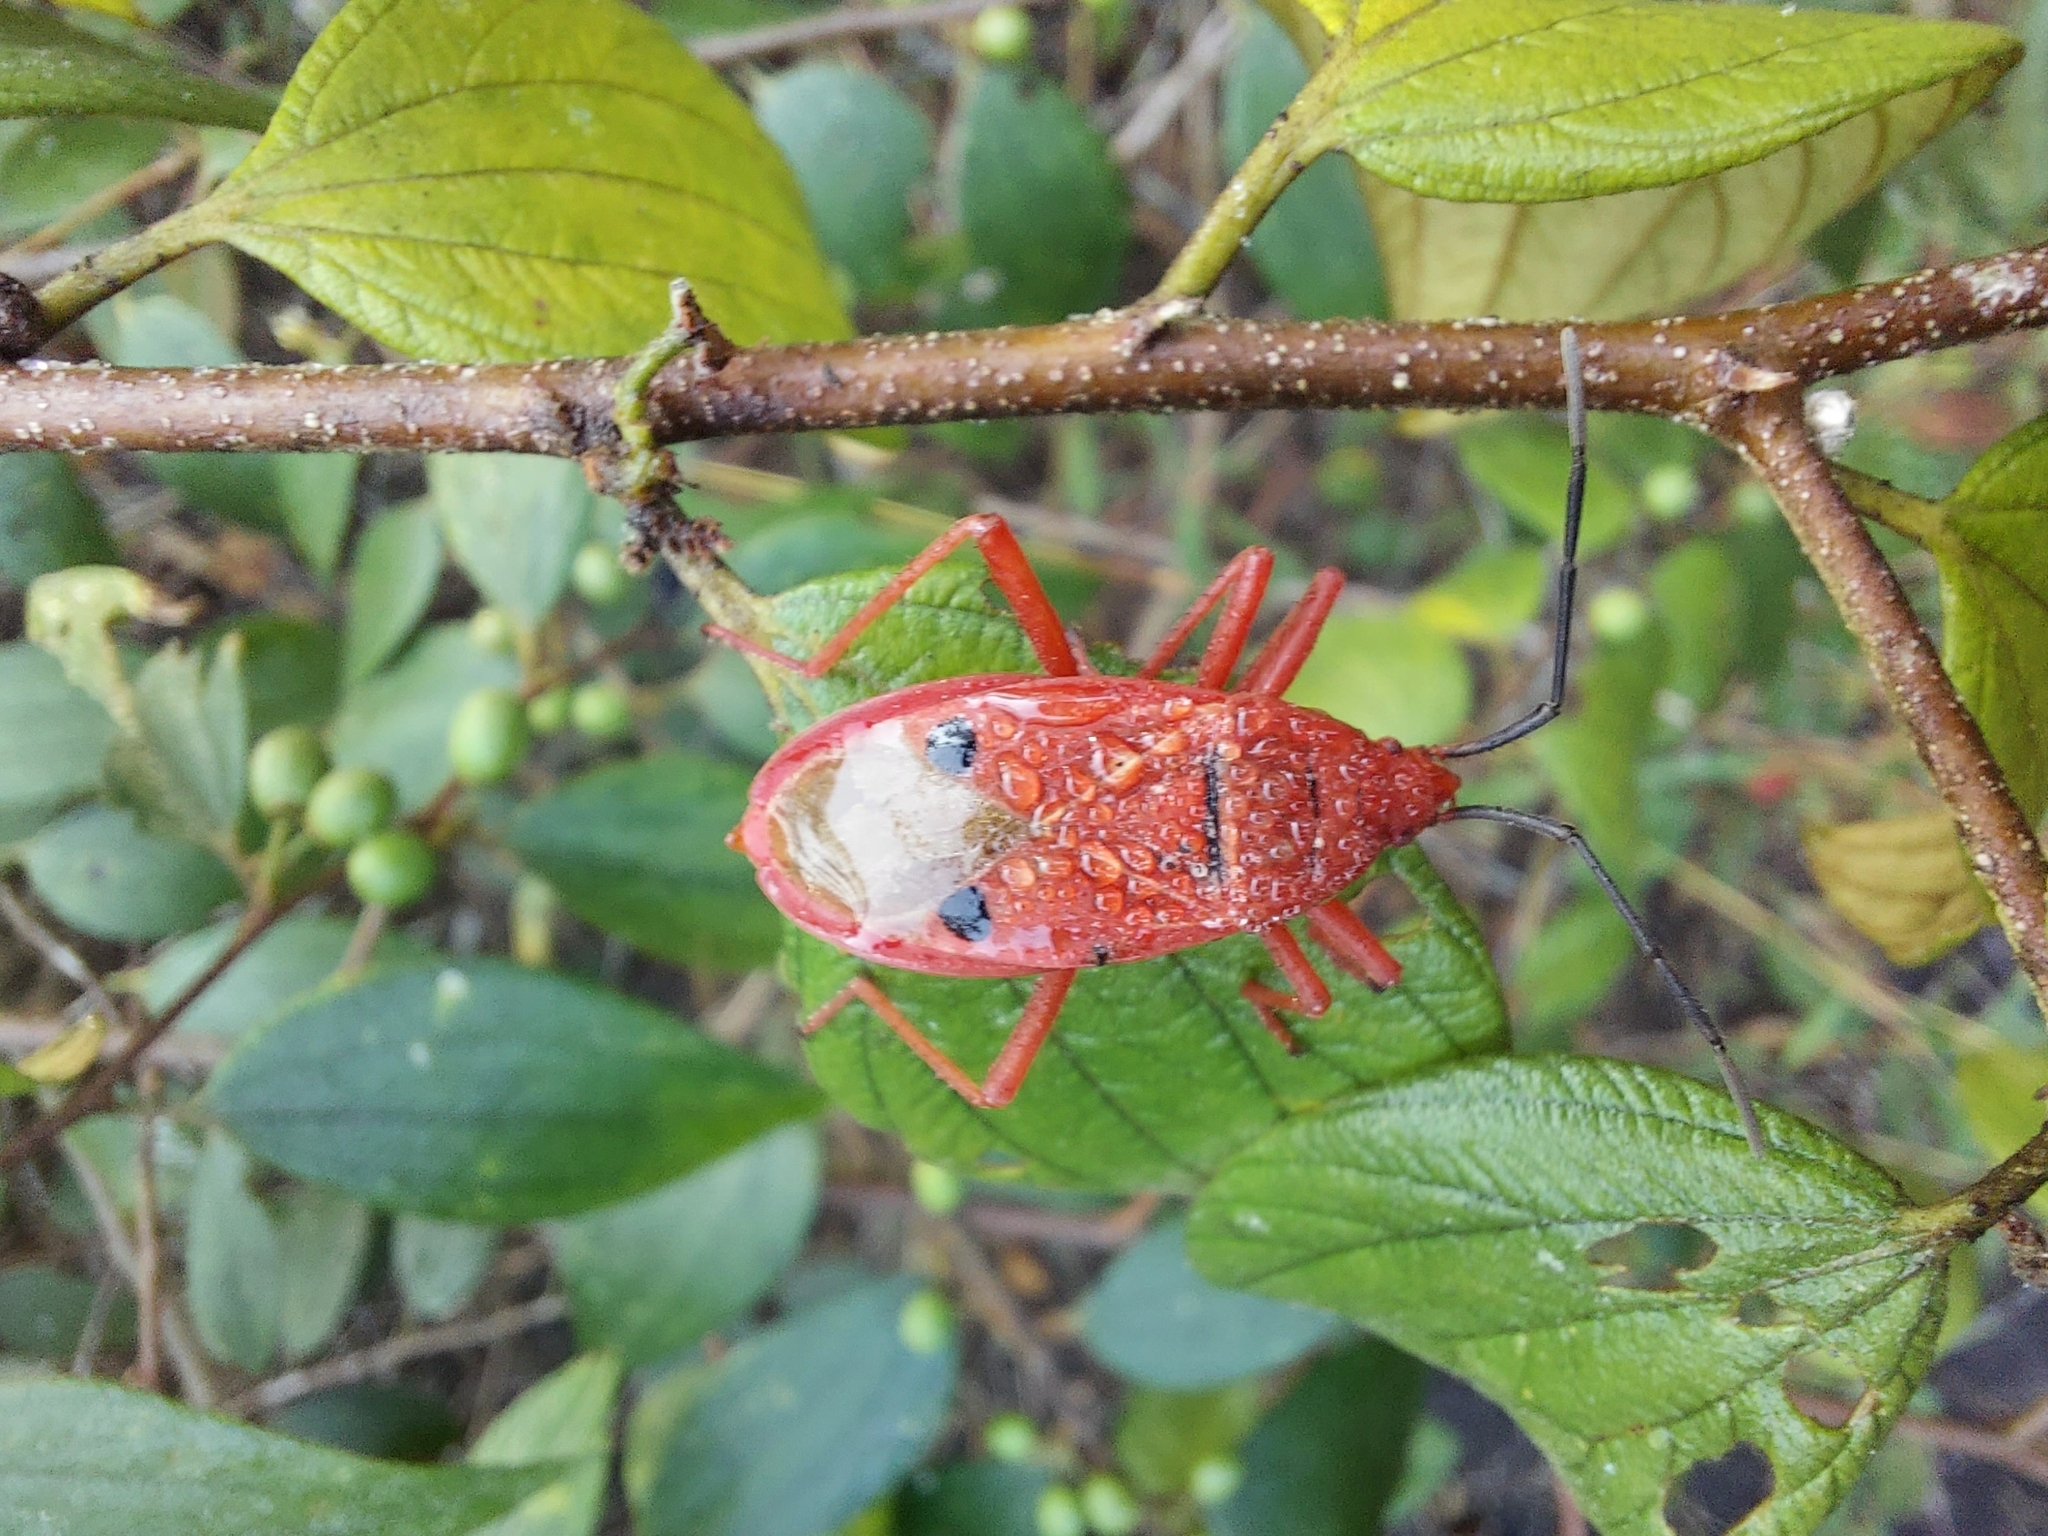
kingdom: Animalia
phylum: Arthropoda
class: Insecta
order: Hemiptera
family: Pyrrhocoridae
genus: Probergrothius
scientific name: Probergrothius nigricornis
